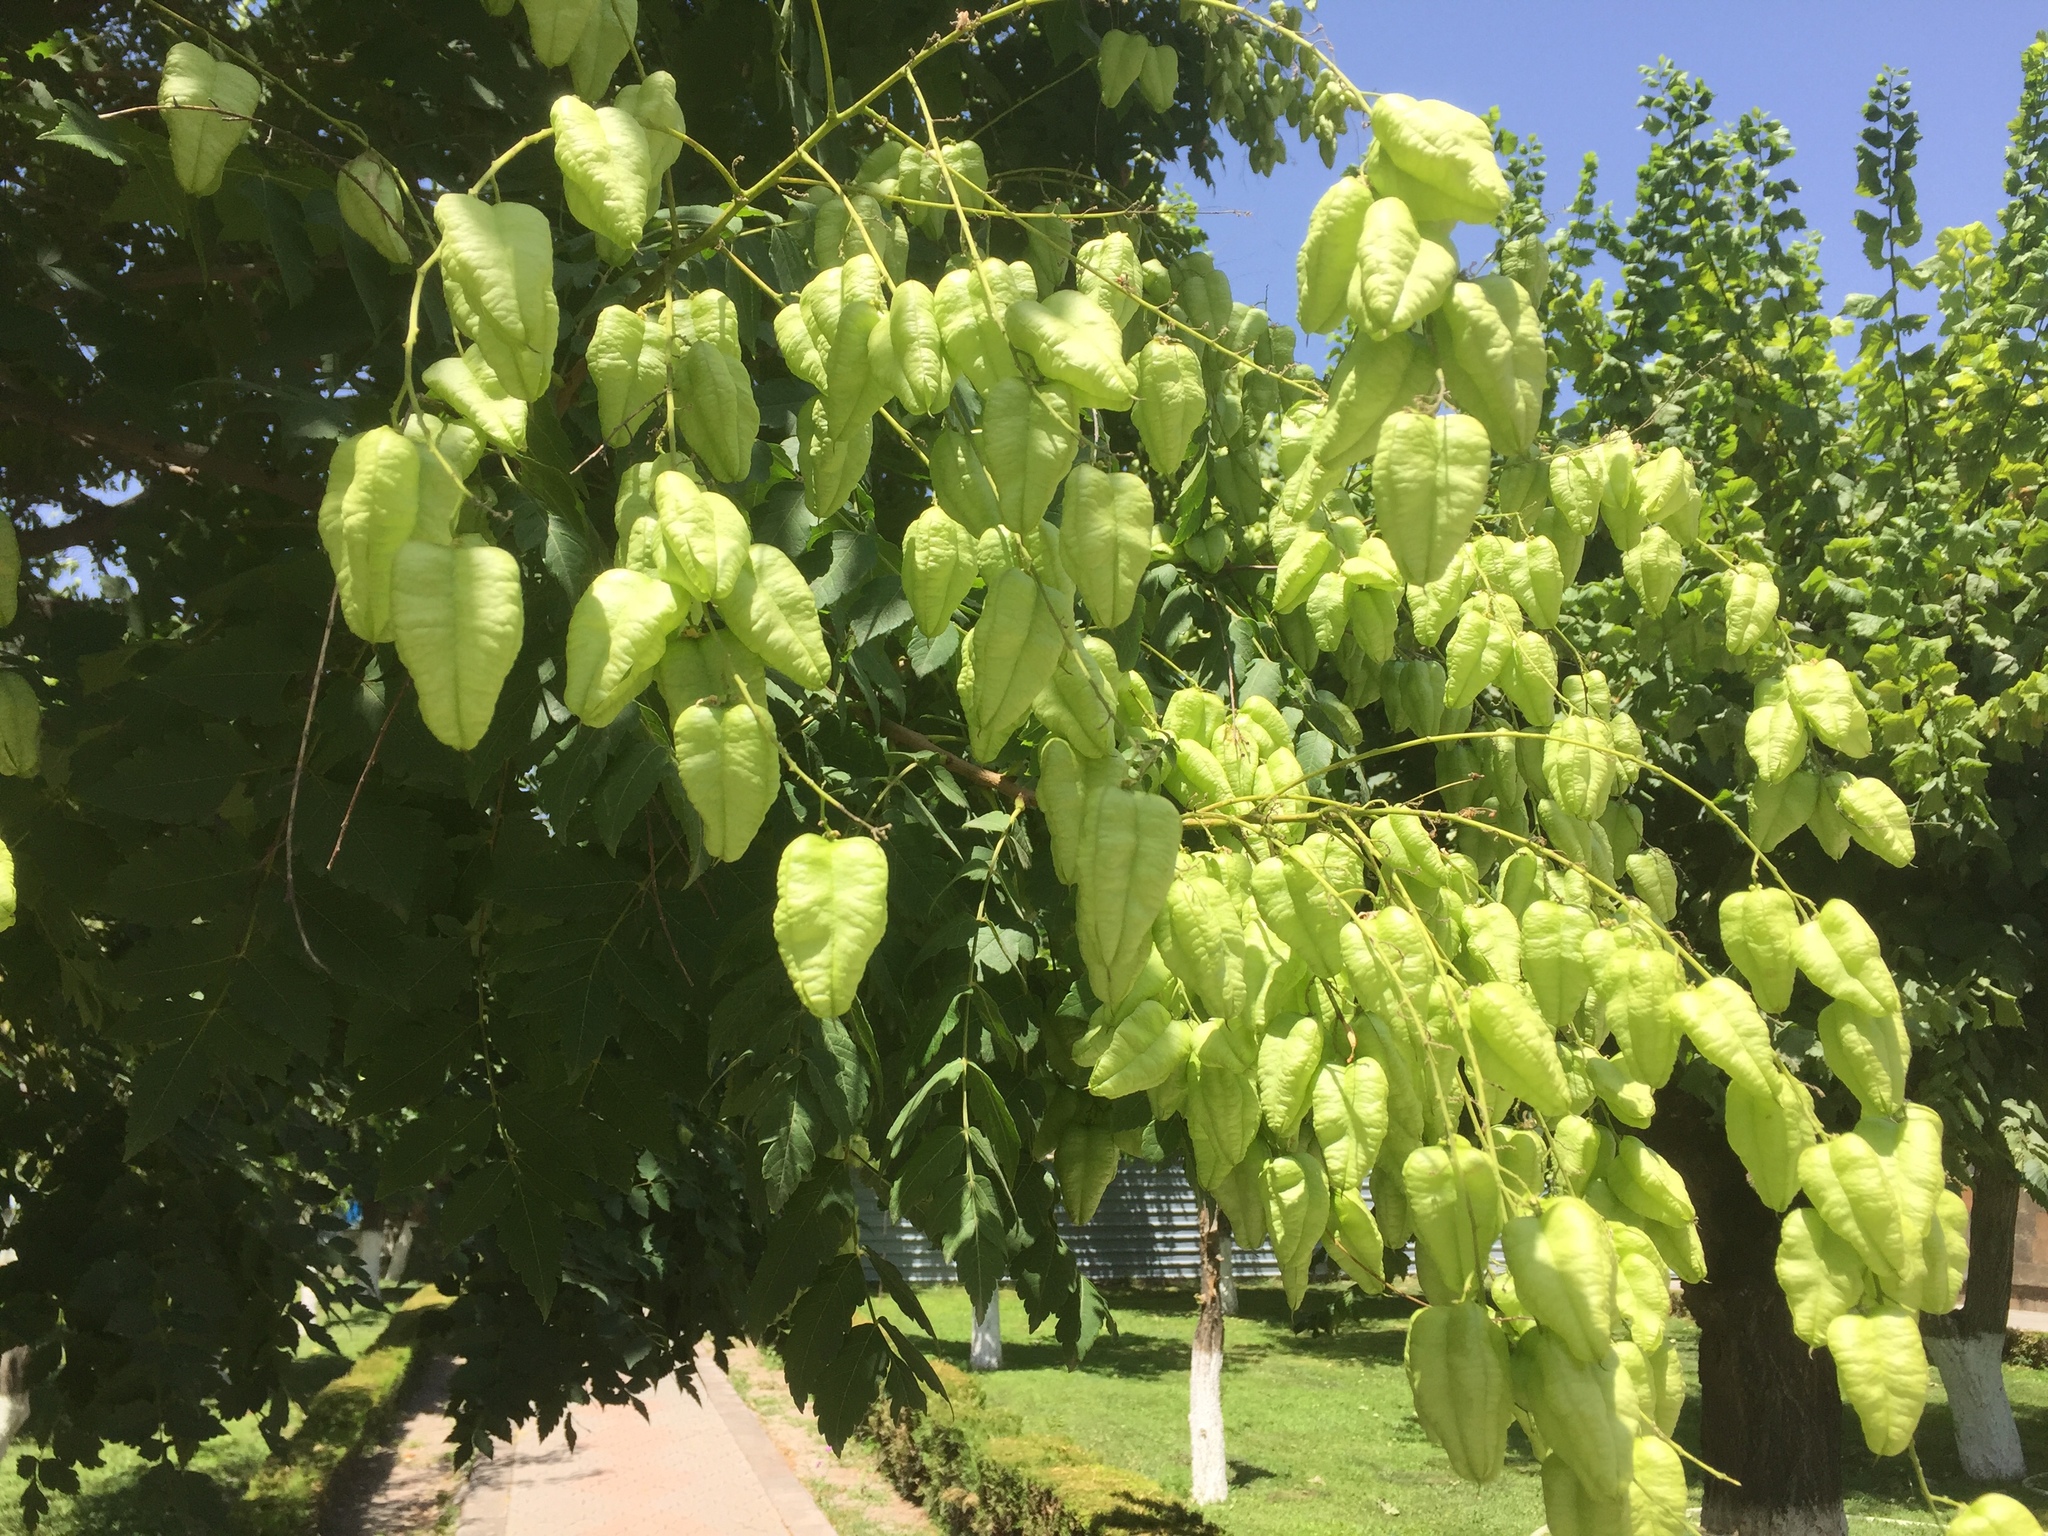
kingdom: Plantae
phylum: Tracheophyta
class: Magnoliopsida
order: Sapindales
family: Sapindaceae
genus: Koelreuteria
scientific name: Koelreuteria paniculata
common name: Pride-of-india
